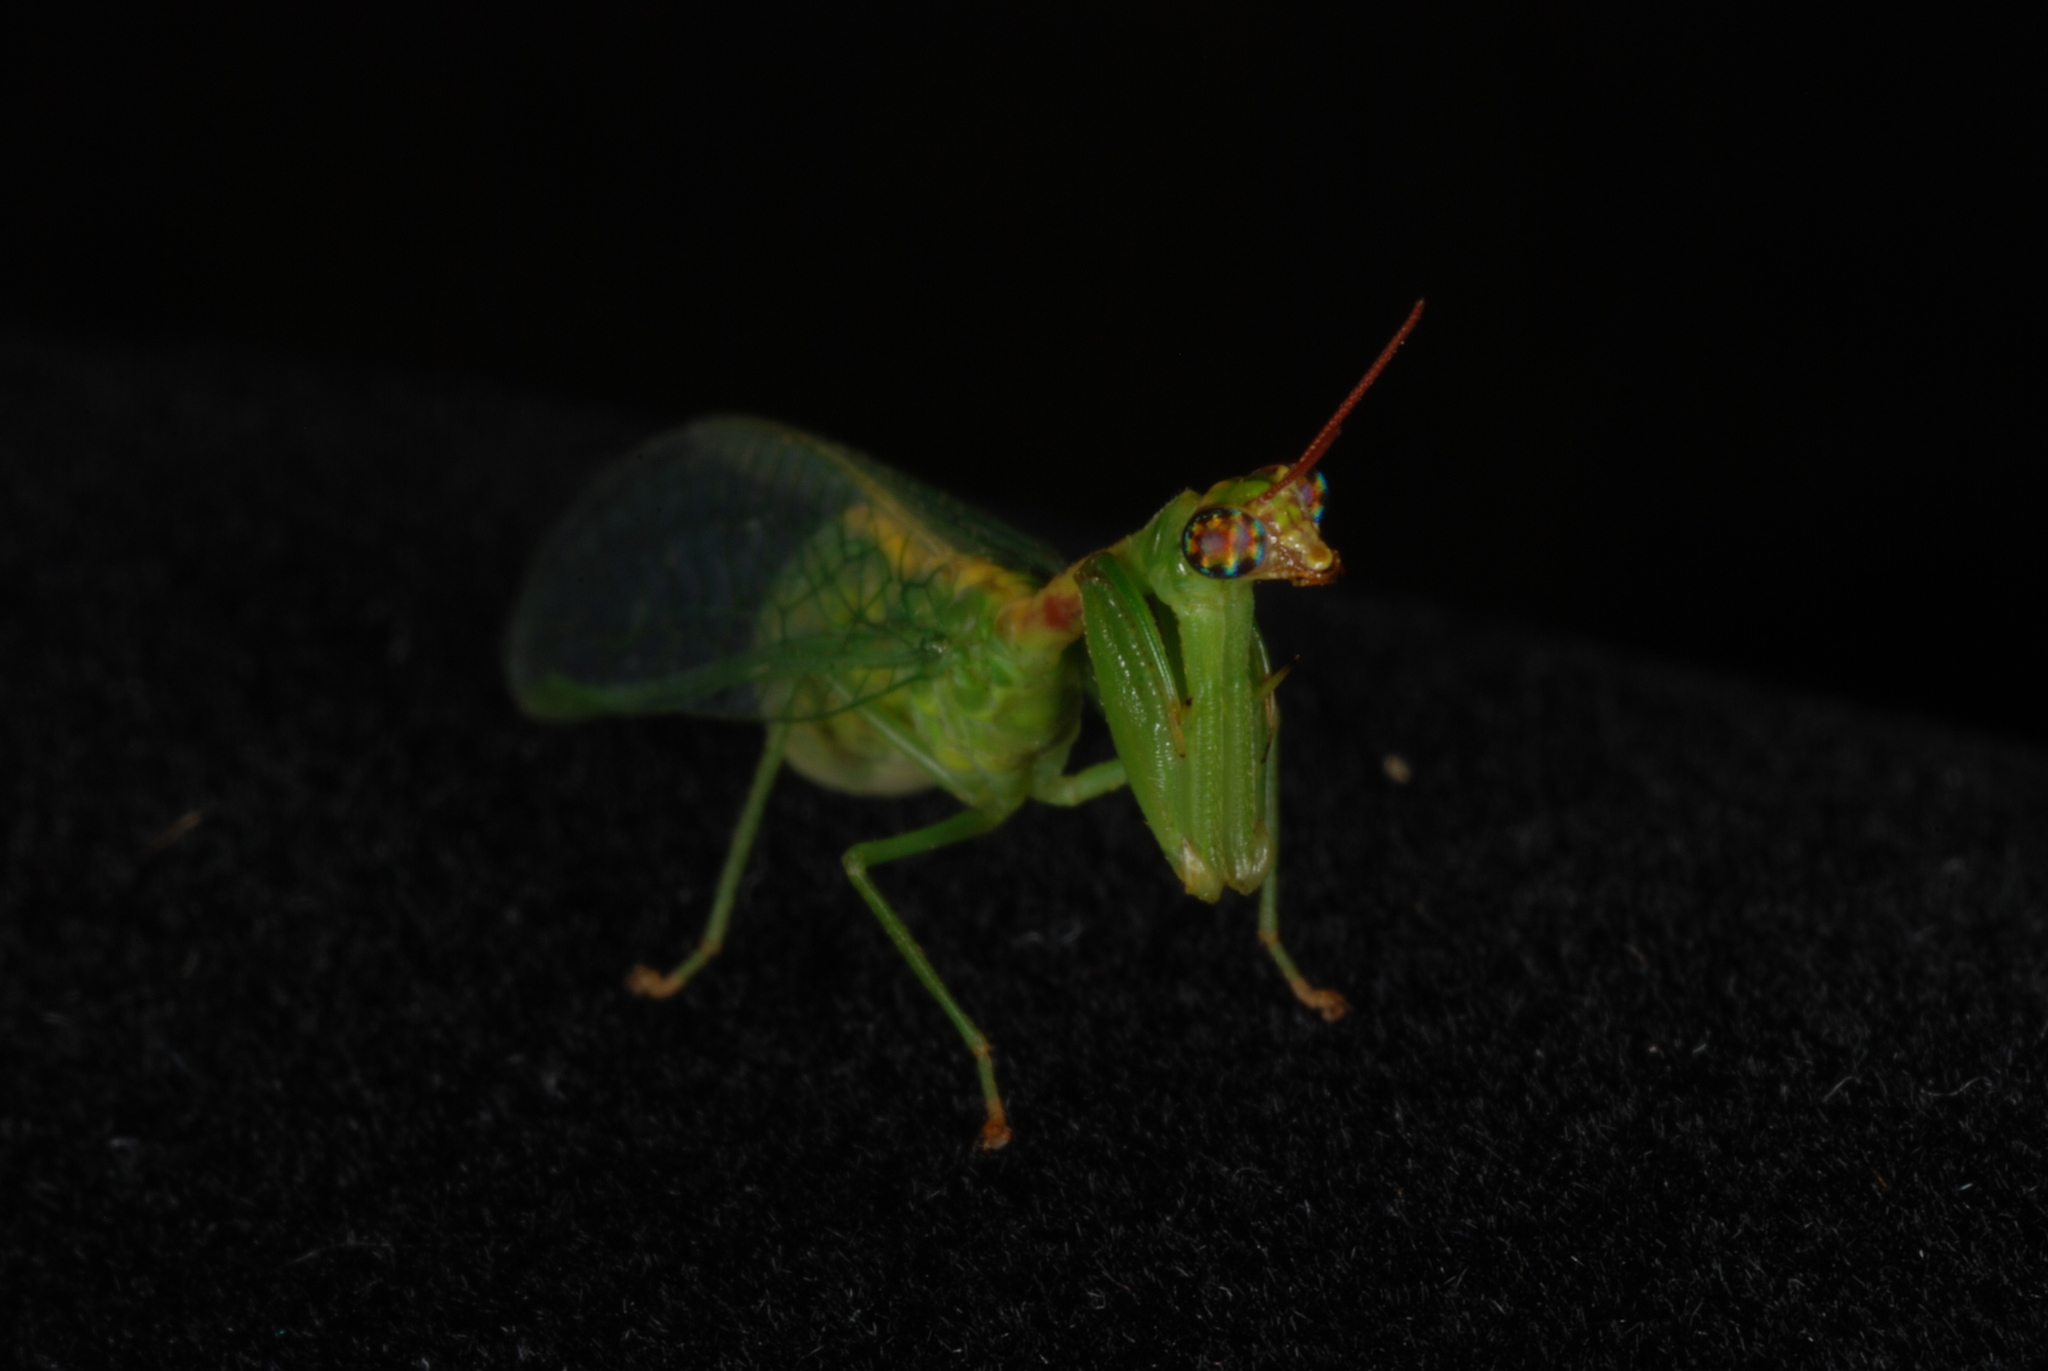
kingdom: Animalia
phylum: Arthropoda
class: Insecta
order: Neuroptera
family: Mantispidae
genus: Zeugomantispa
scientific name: Zeugomantispa minuta
